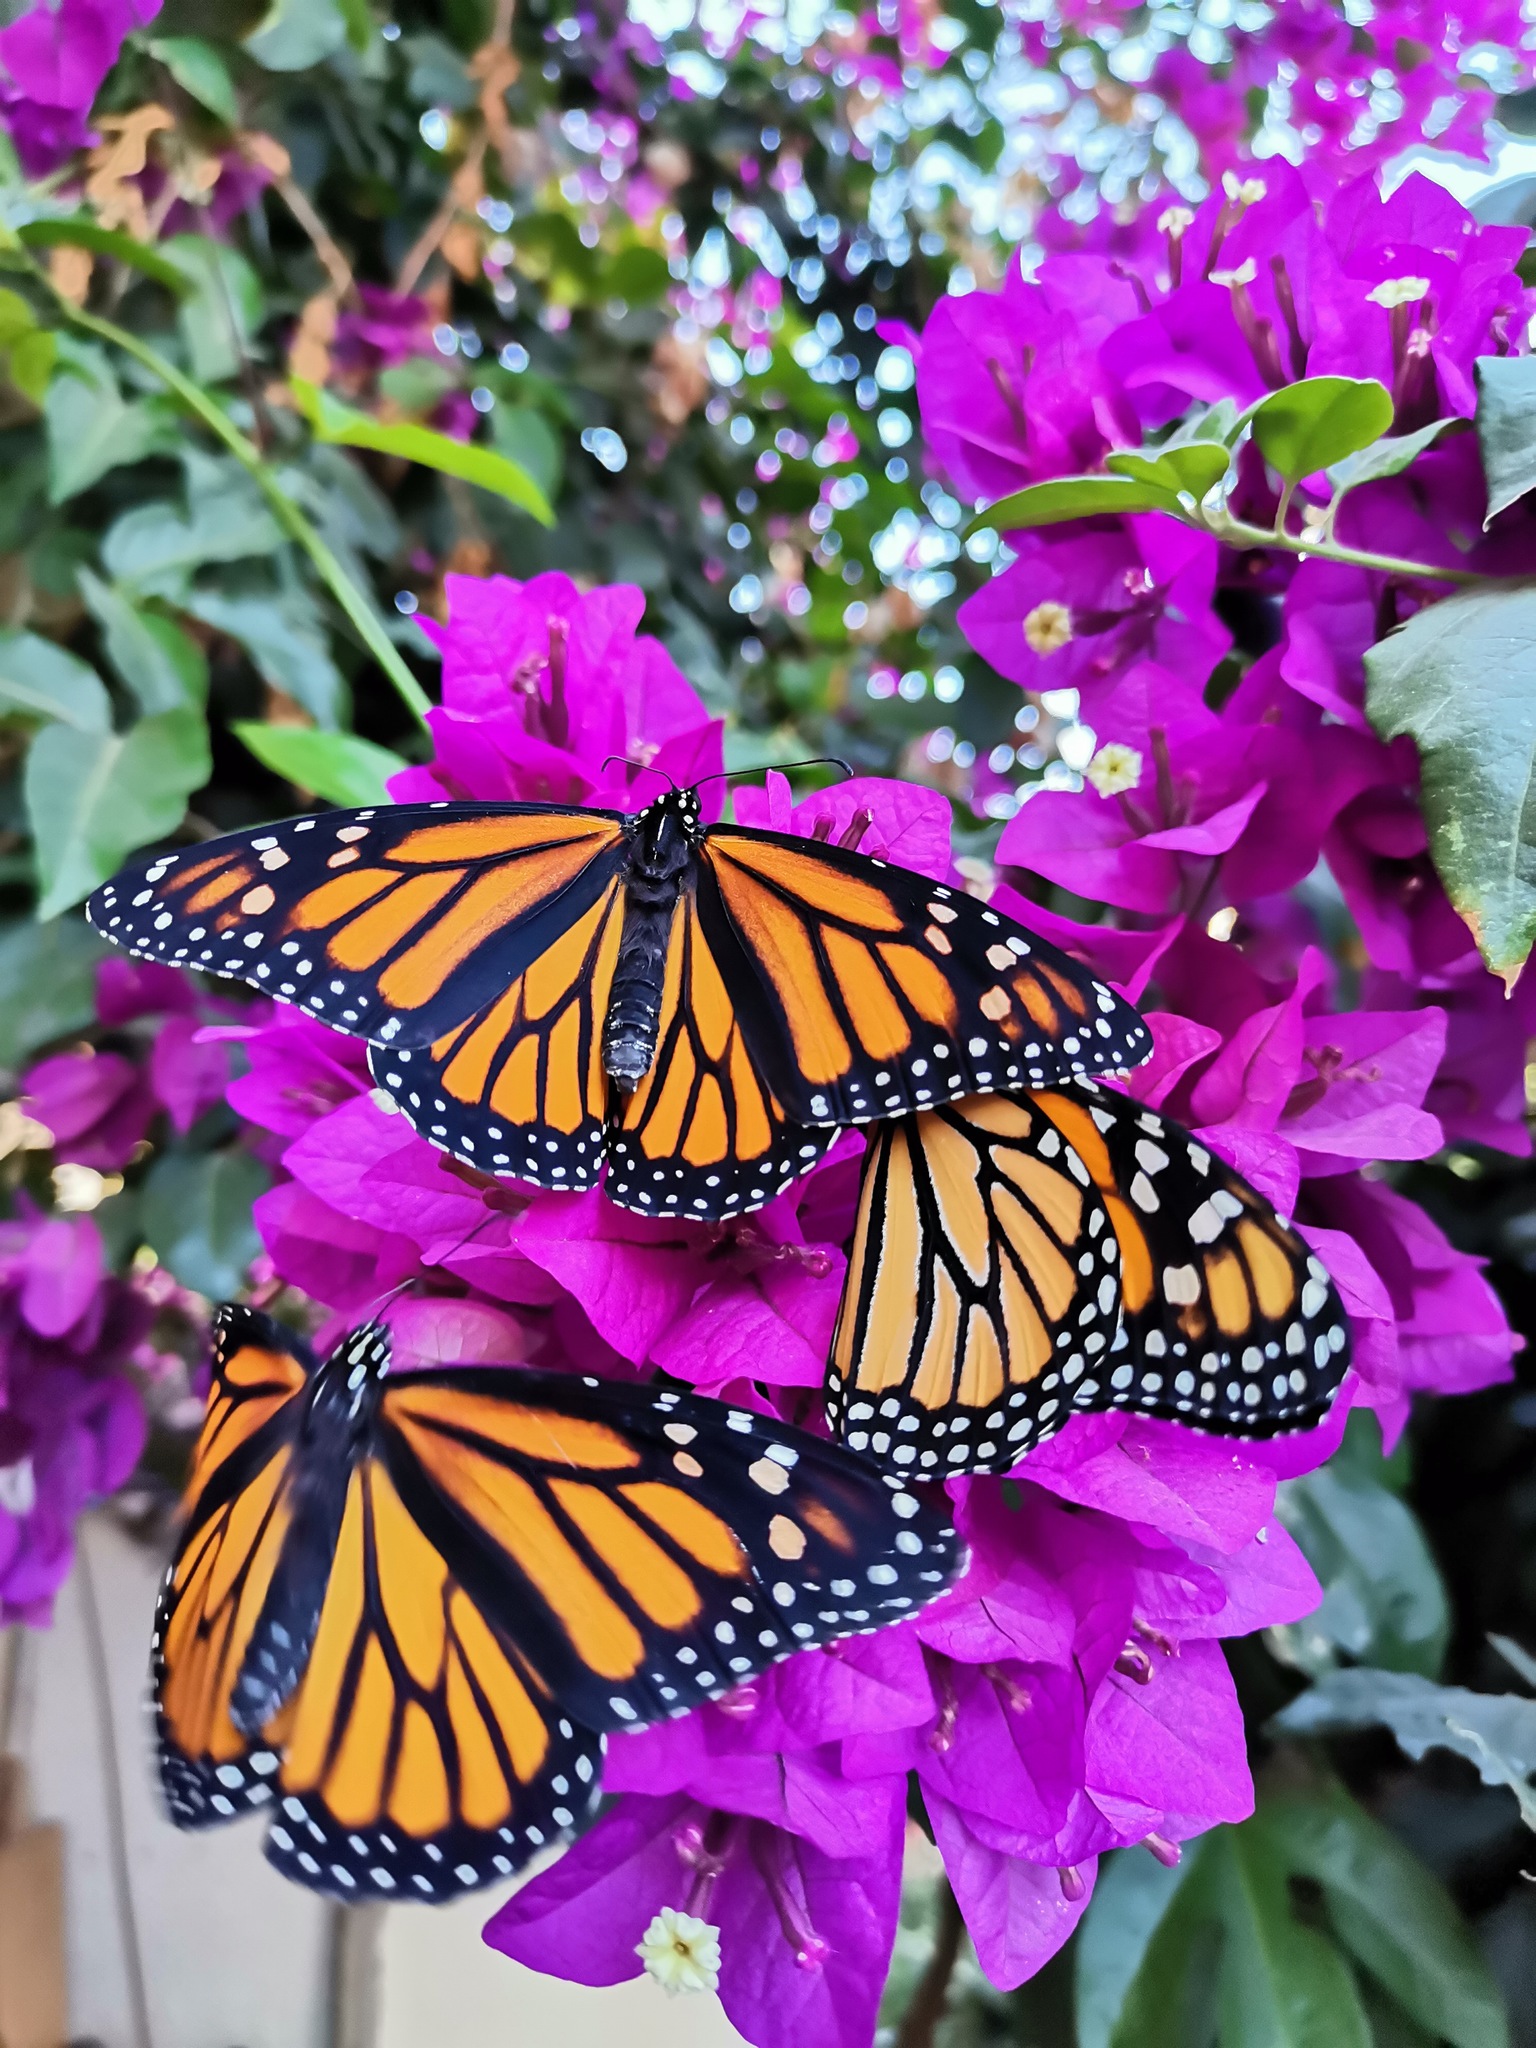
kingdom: Animalia
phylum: Arthropoda
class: Insecta
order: Lepidoptera
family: Nymphalidae
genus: Danaus
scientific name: Danaus plexippus
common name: Monarch
